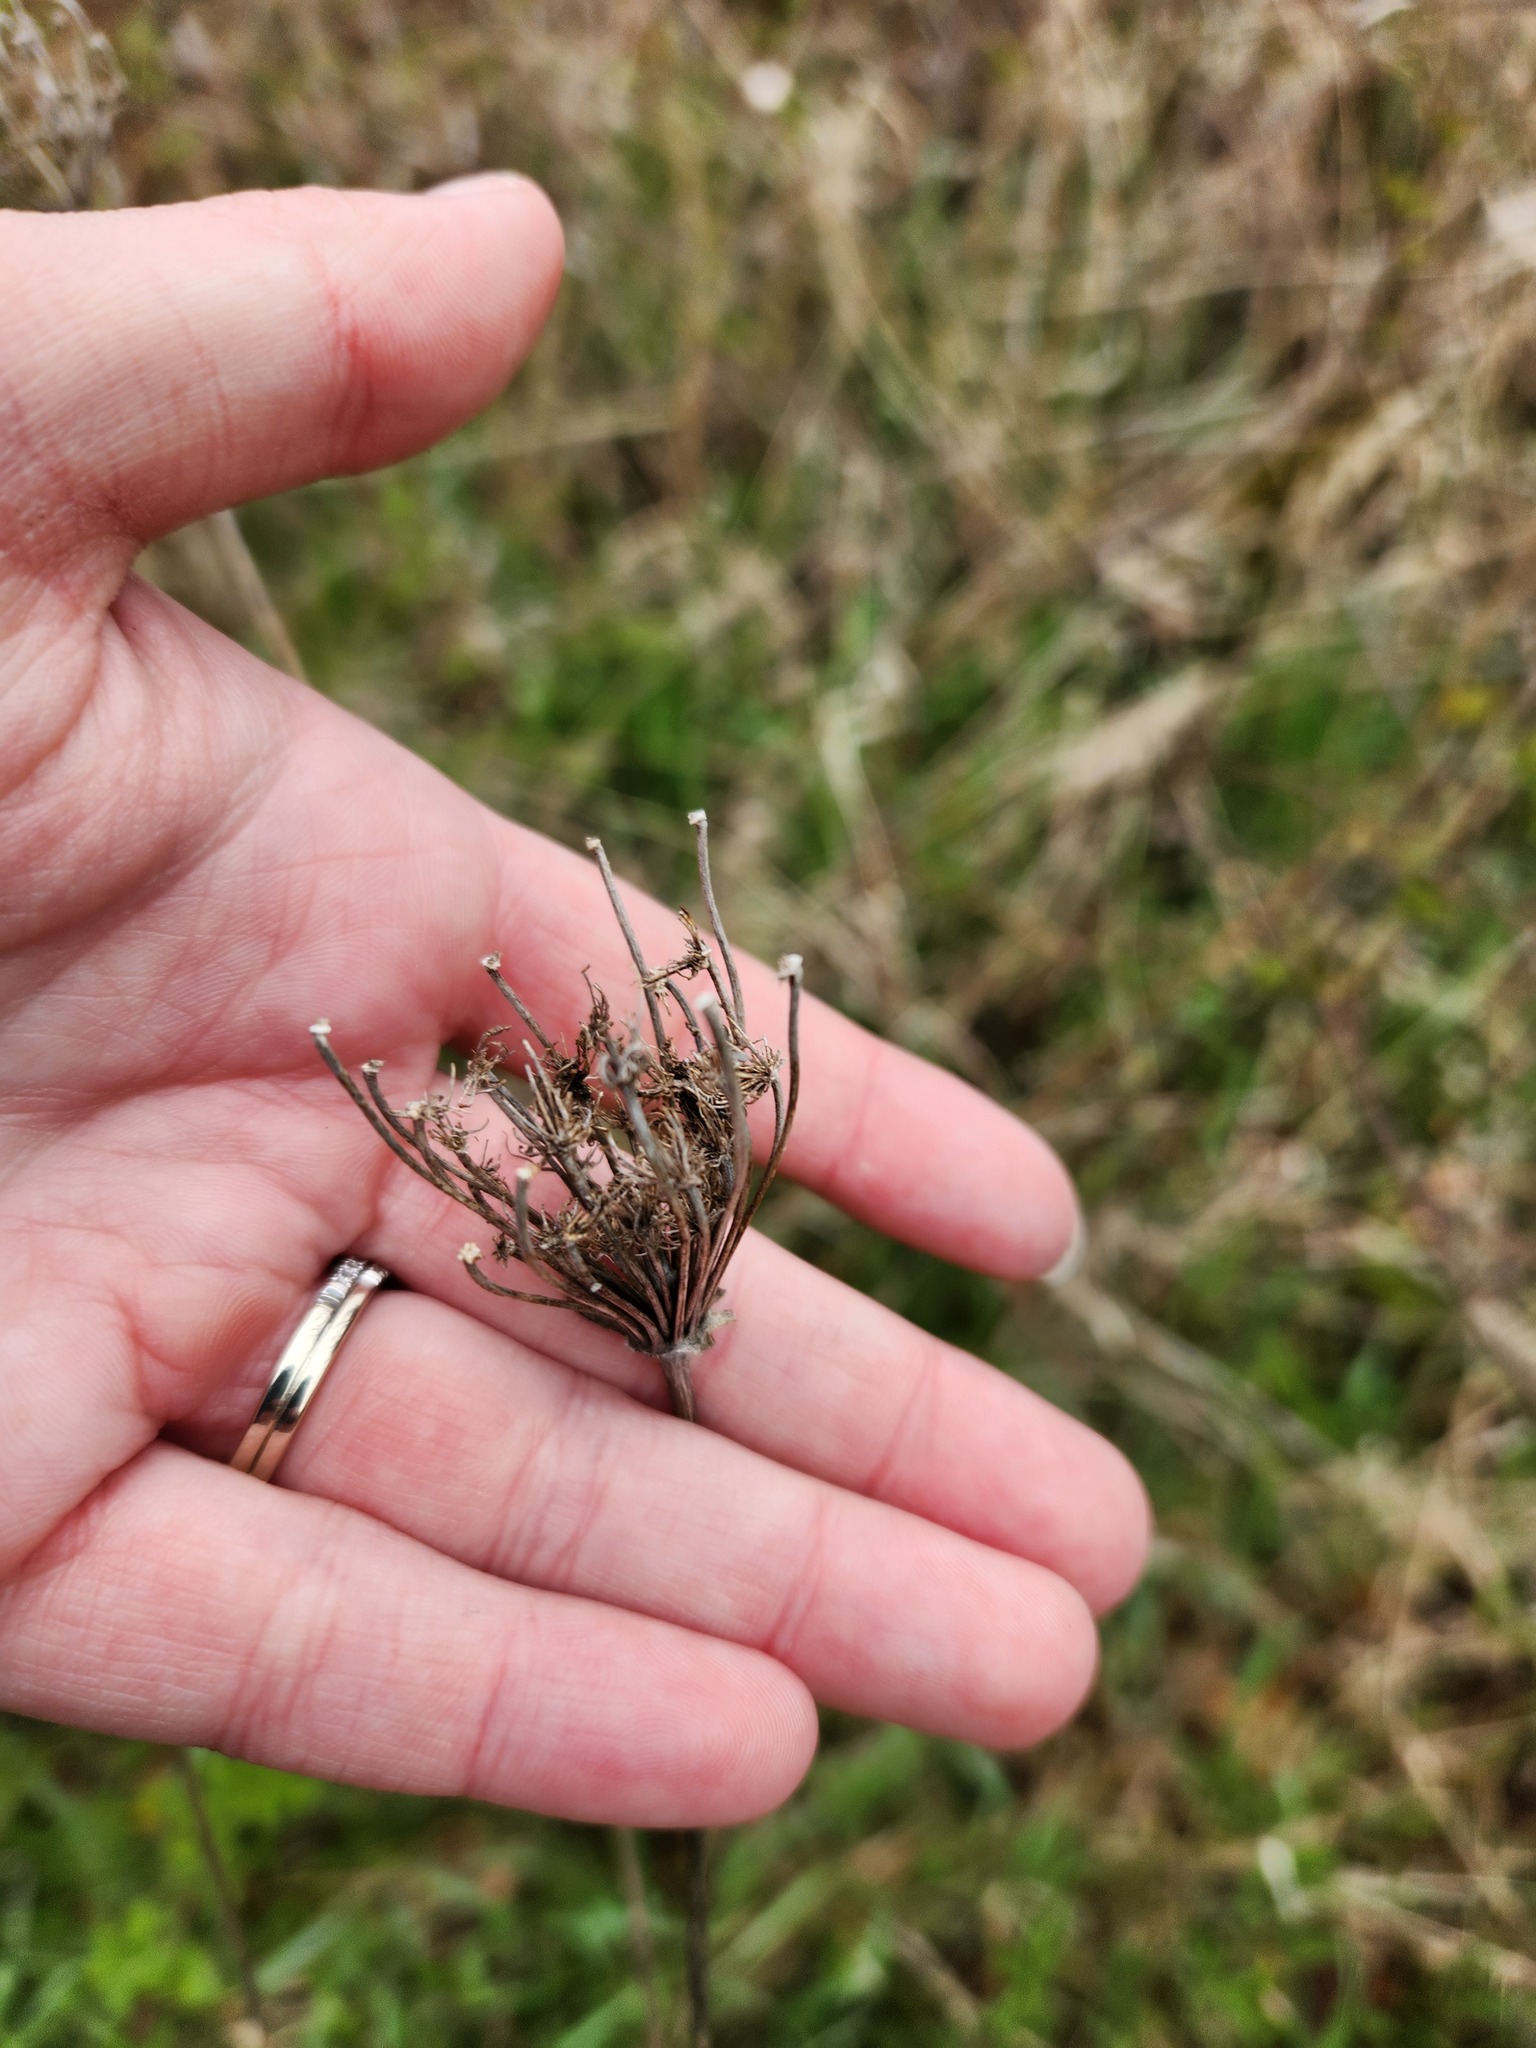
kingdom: Plantae
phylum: Tracheophyta
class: Magnoliopsida
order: Apiales
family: Apiaceae
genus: Daucus
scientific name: Daucus carota
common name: Wild carrot
